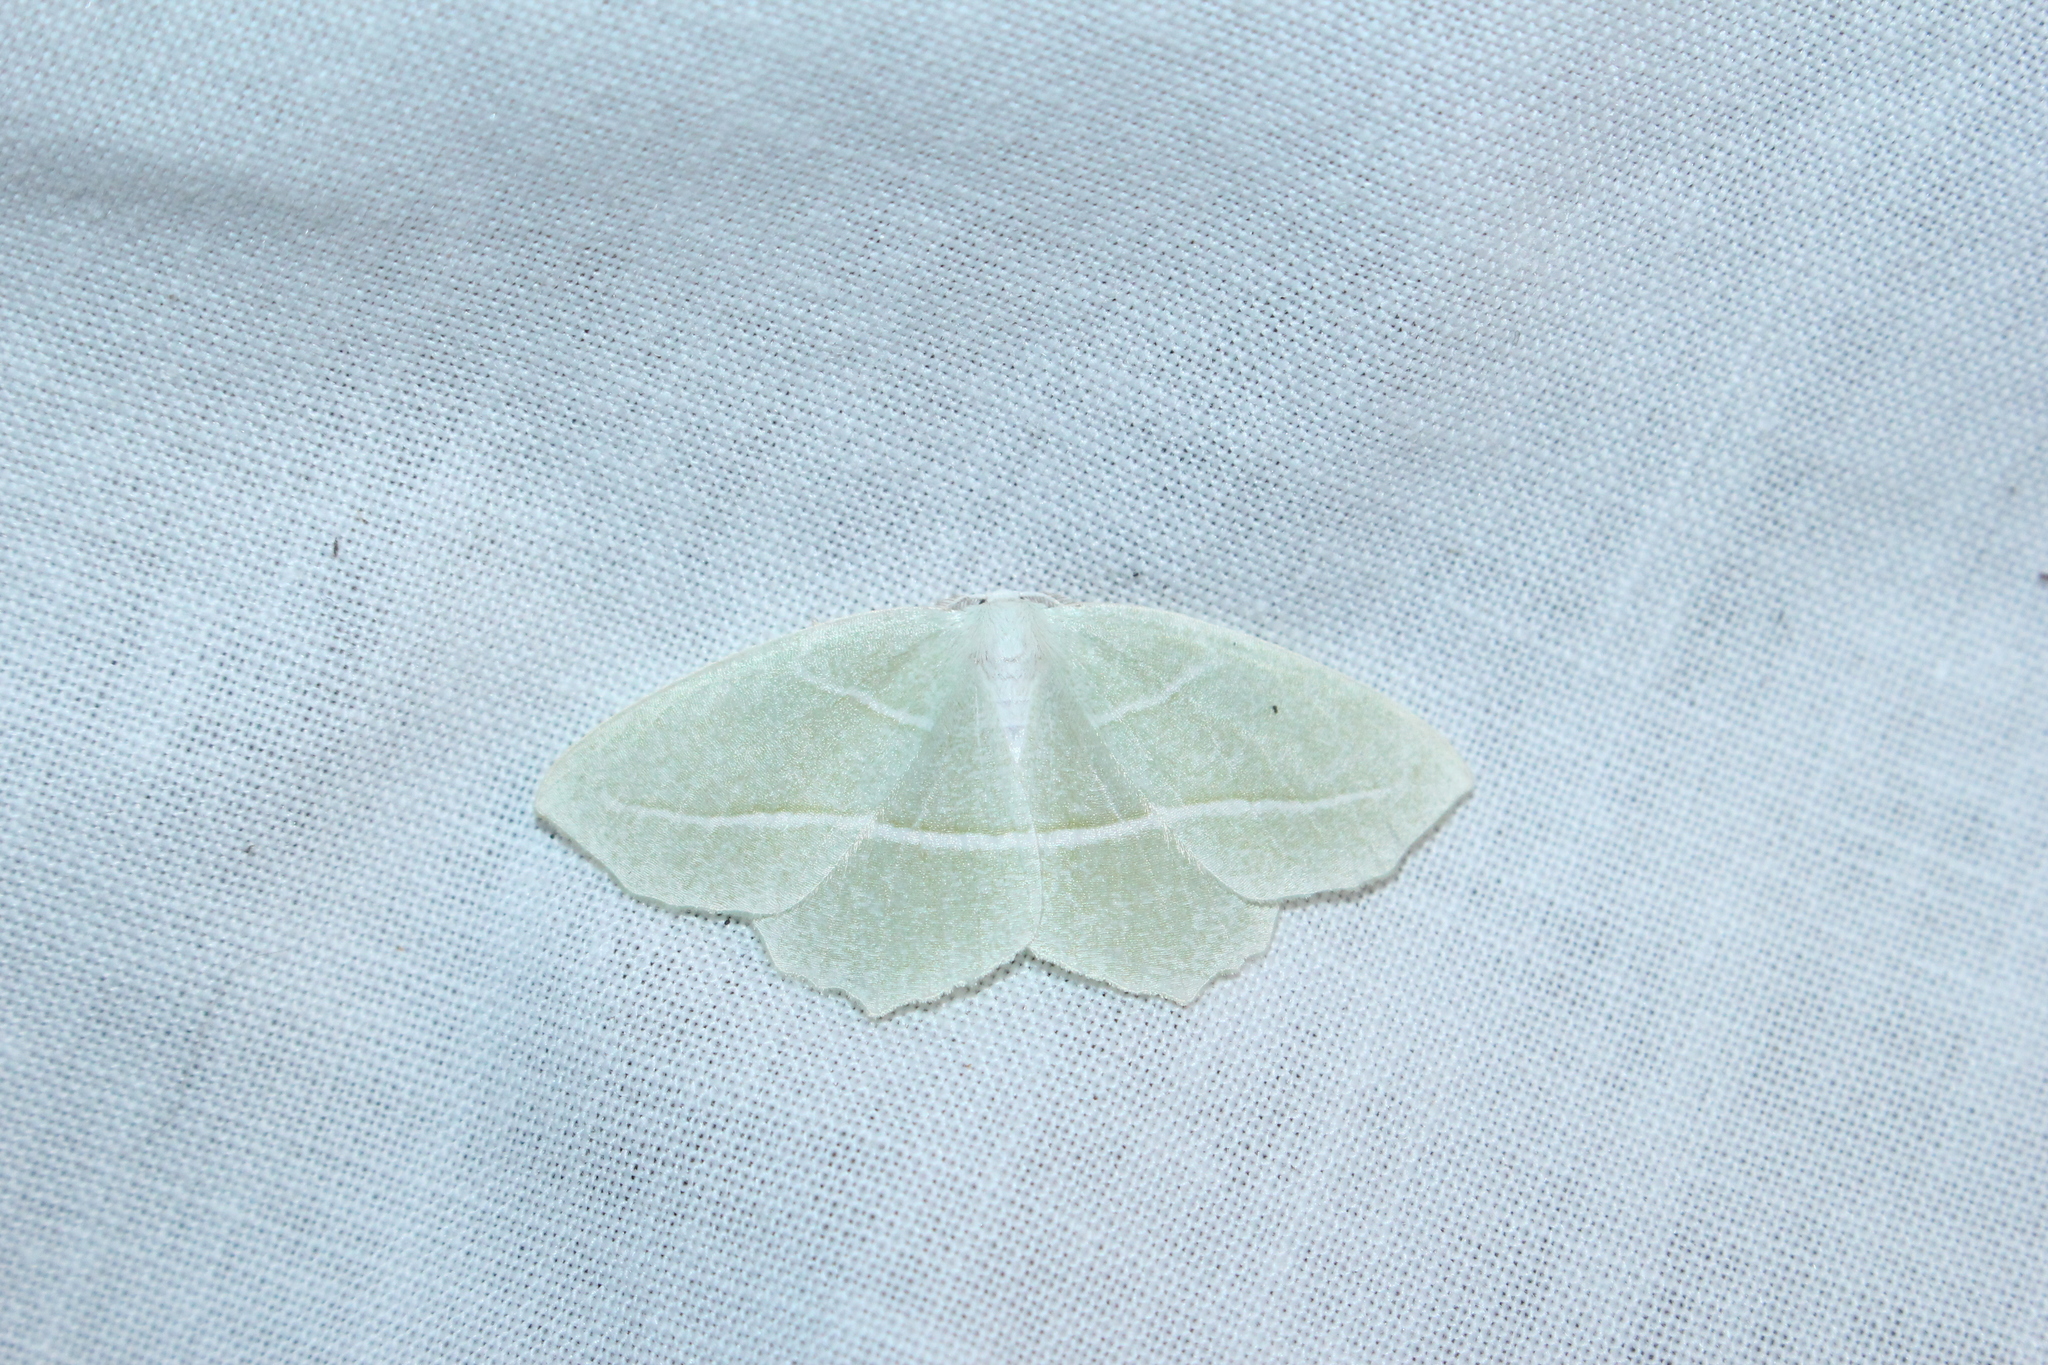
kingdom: Animalia
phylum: Arthropoda
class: Insecta
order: Lepidoptera
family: Geometridae
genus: Campaea
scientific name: Campaea perlata
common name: Fringed looper
